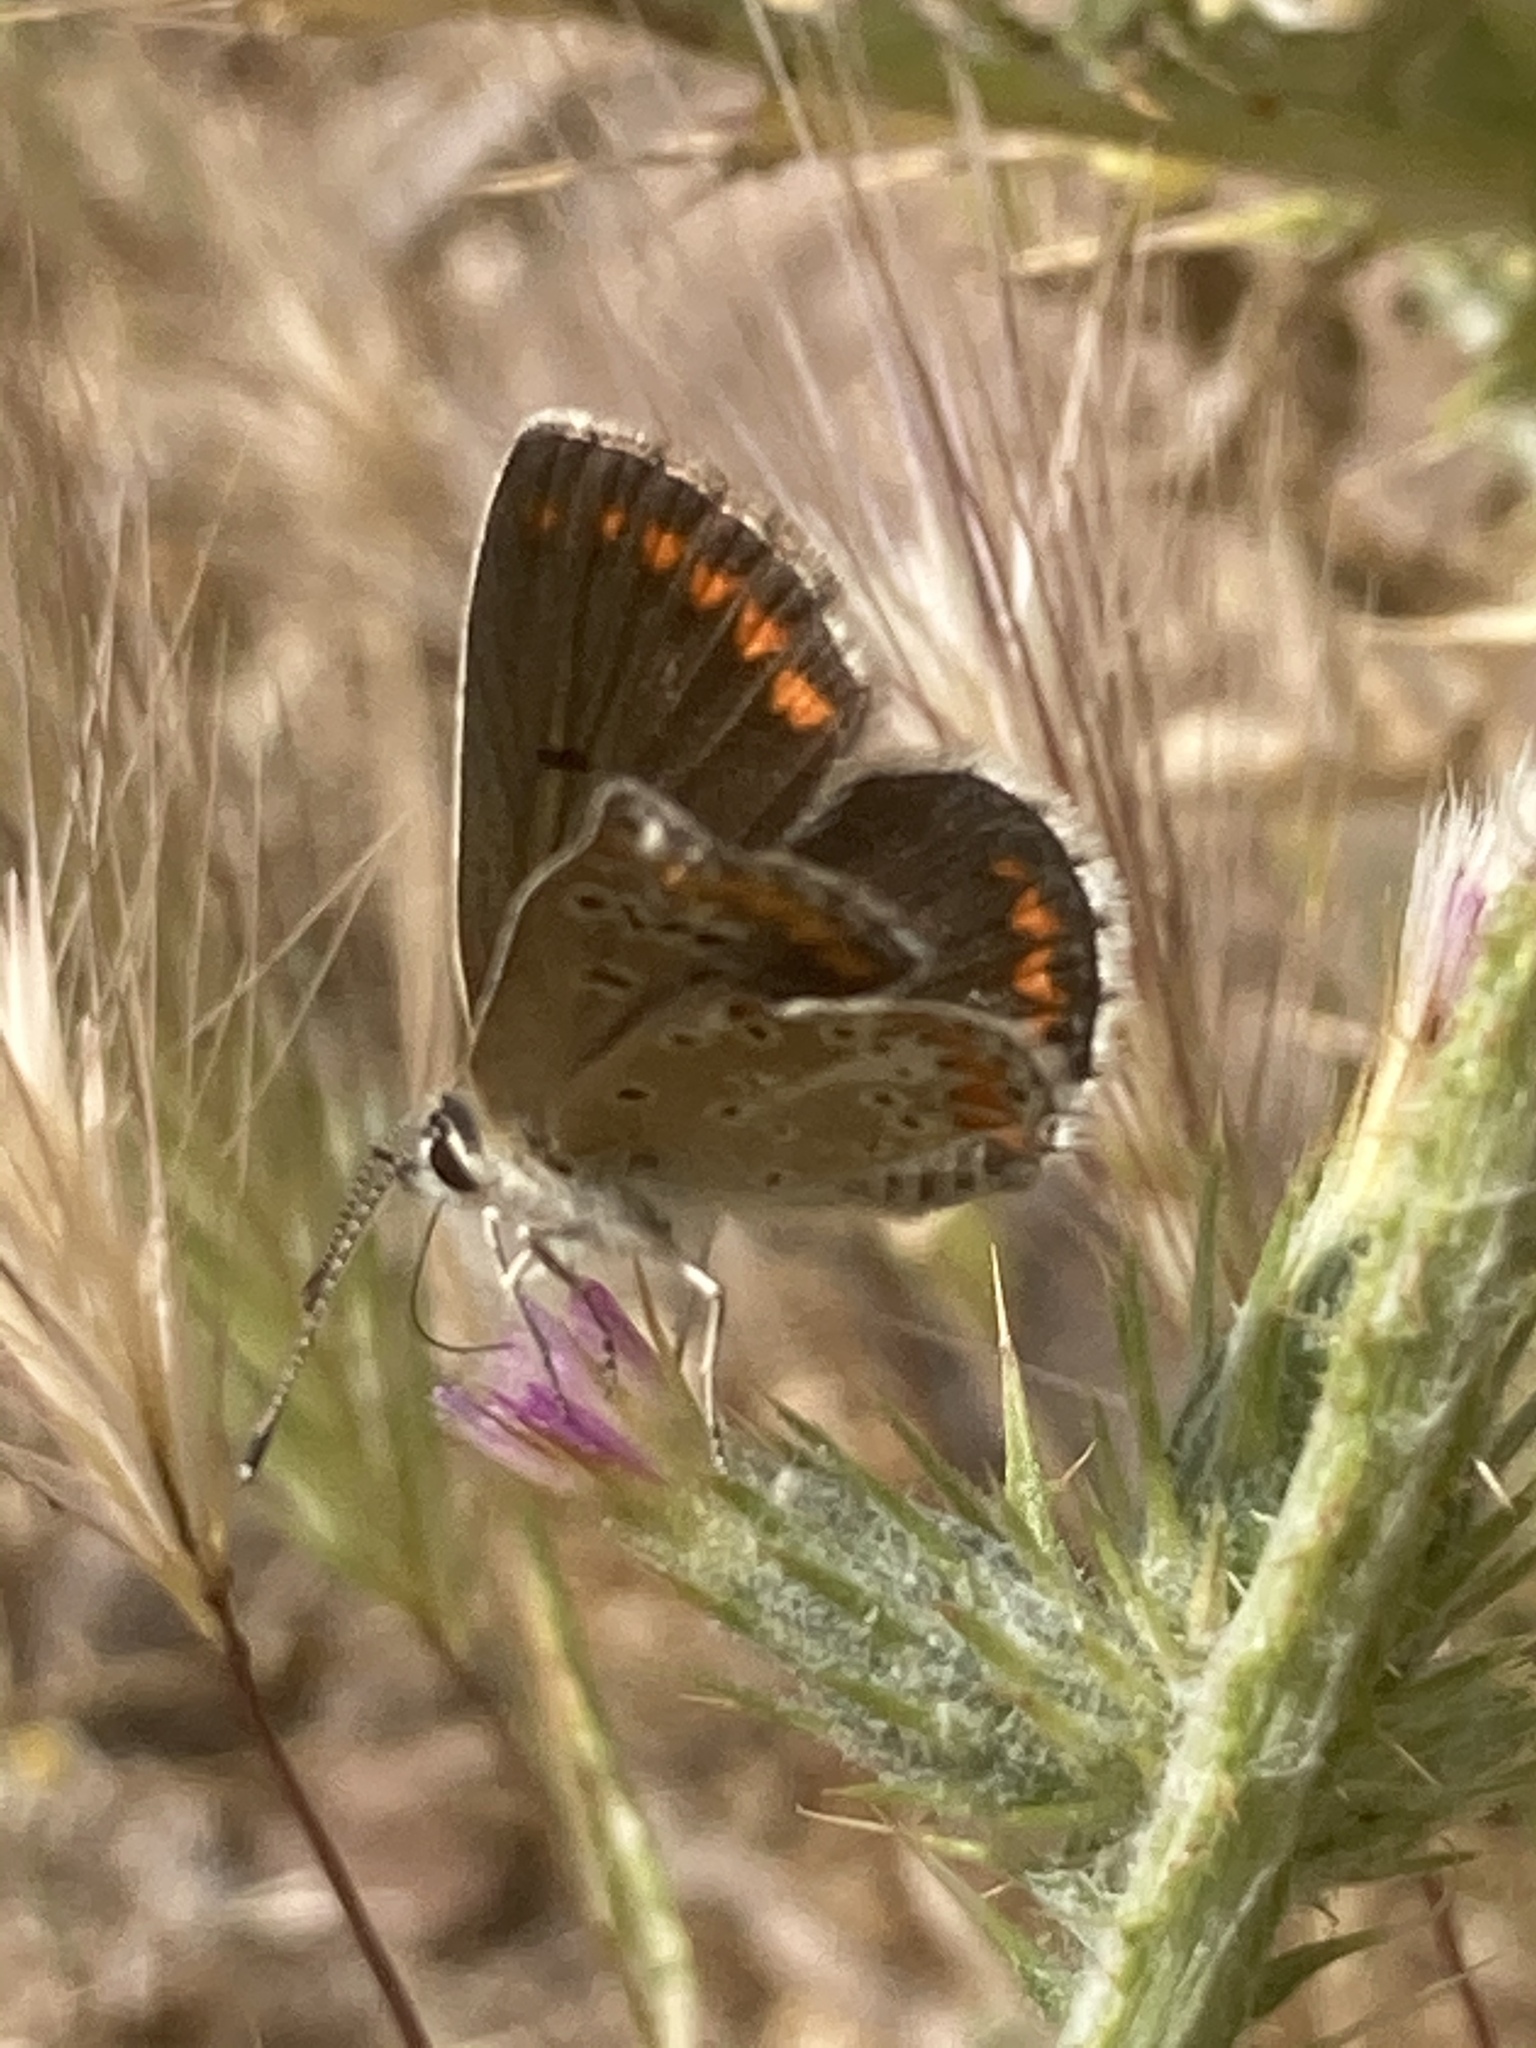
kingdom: Animalia
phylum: Arthropoda
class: Insecta
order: Lepidoptera
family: Lycaenidae
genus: Aricia
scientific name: Aricia agestis
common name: Brown argus
